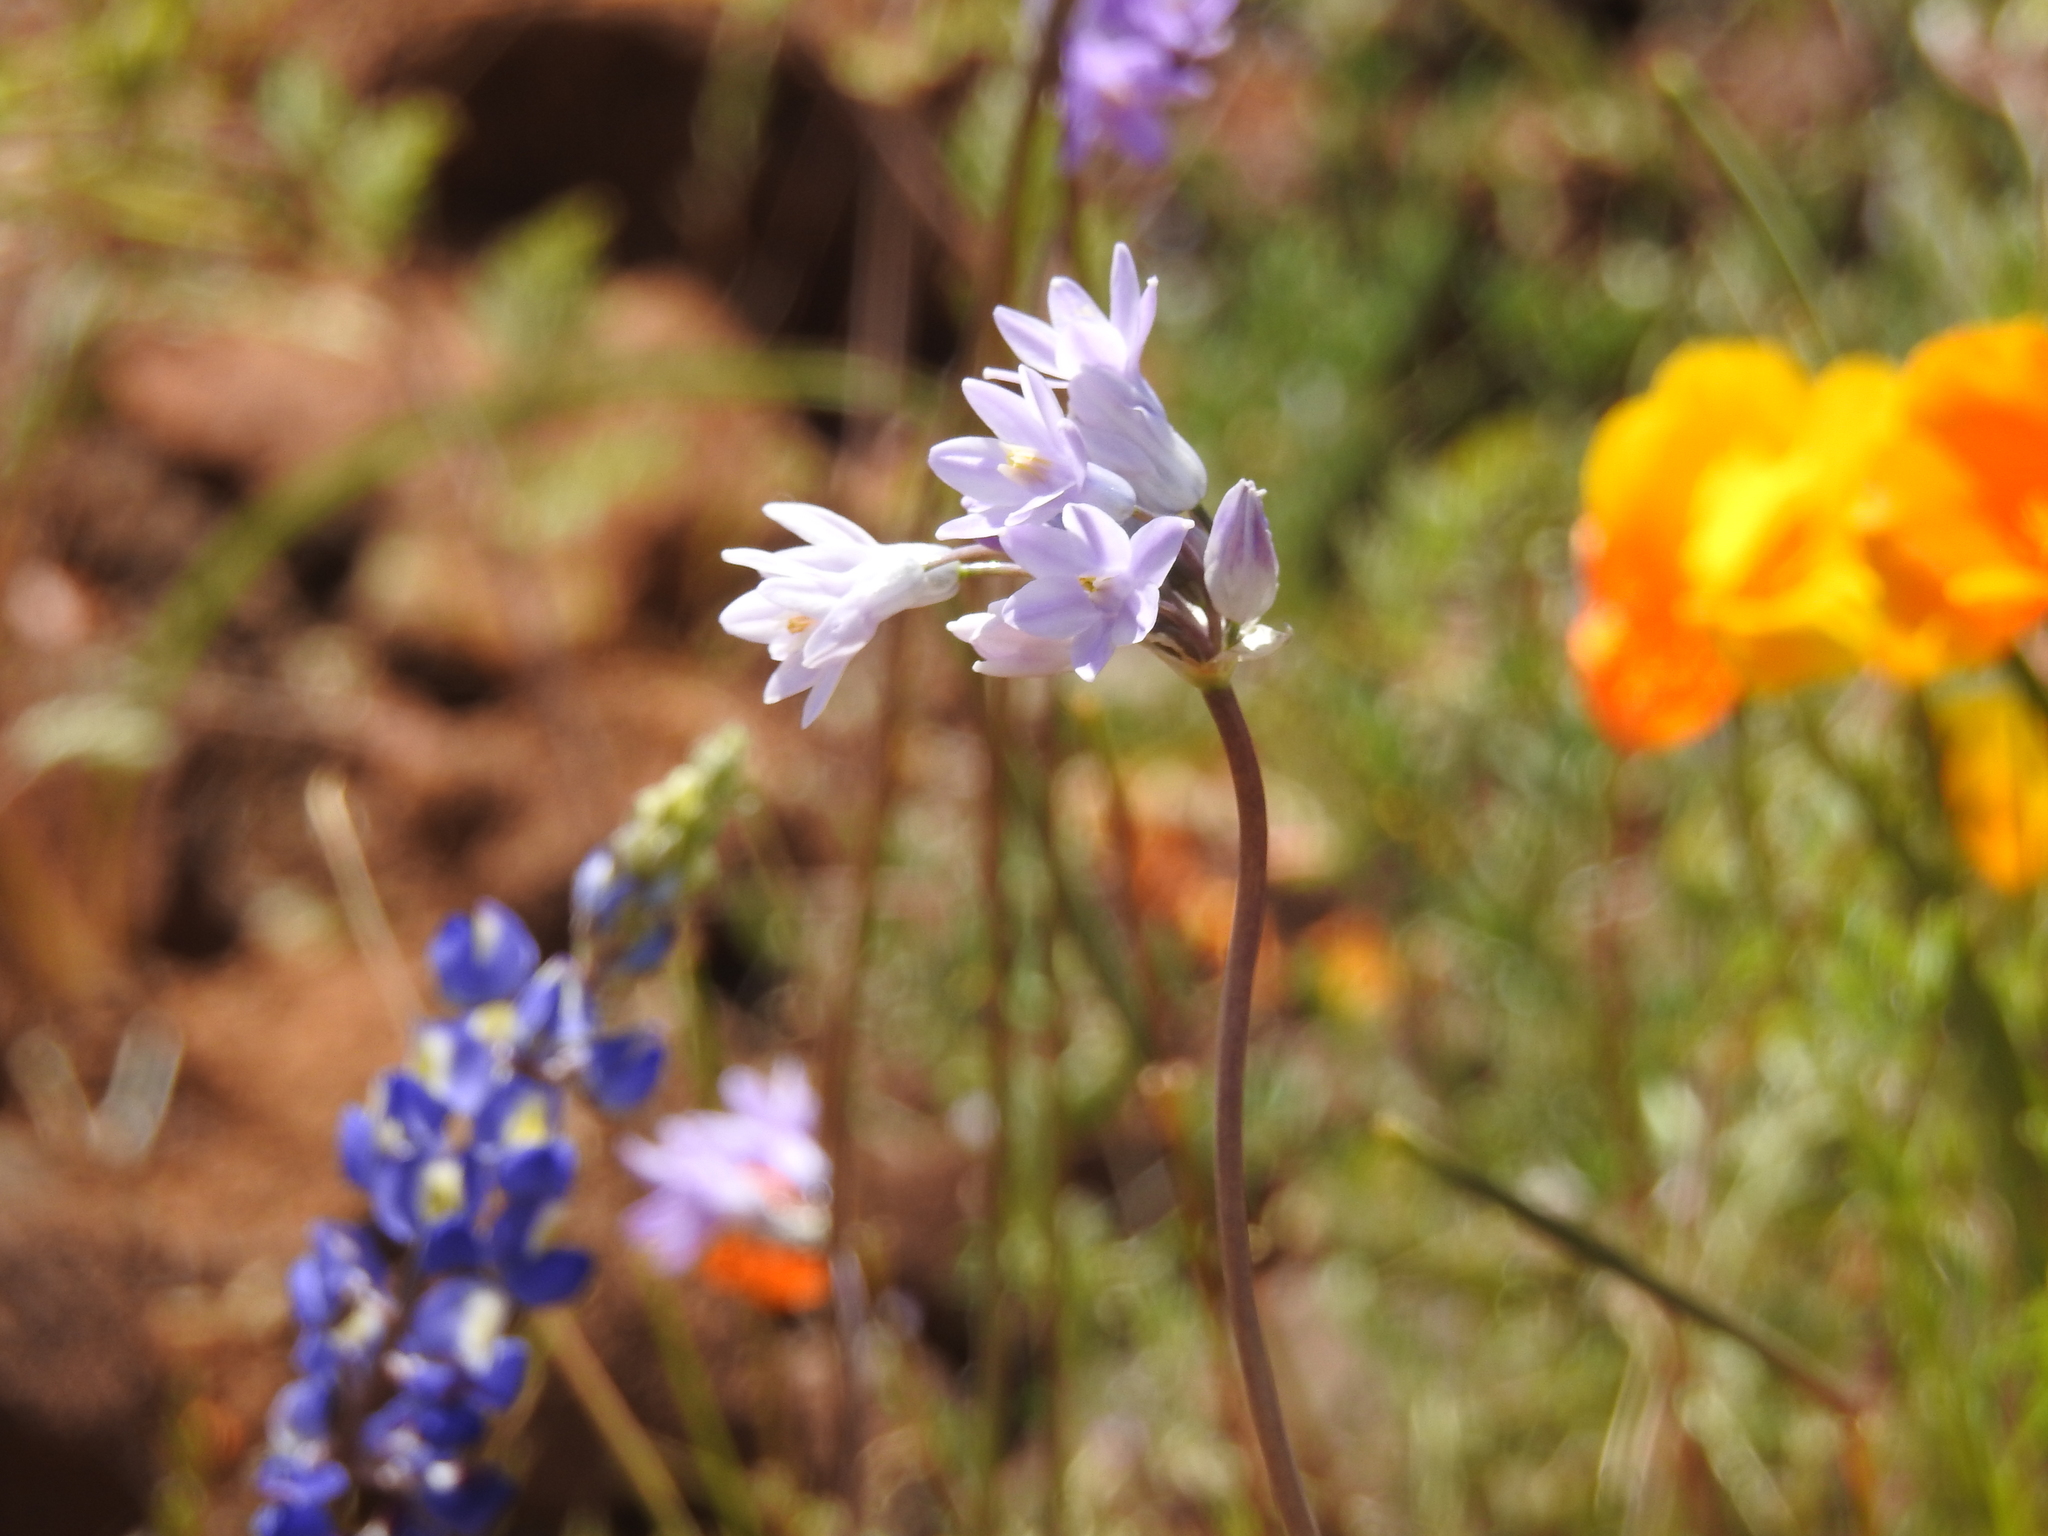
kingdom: Plantae
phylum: Tracheophyta
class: Liliopsida
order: Asparagales
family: Asparagaceae
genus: Dipterostemon
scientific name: Dipterostemon capitatus
